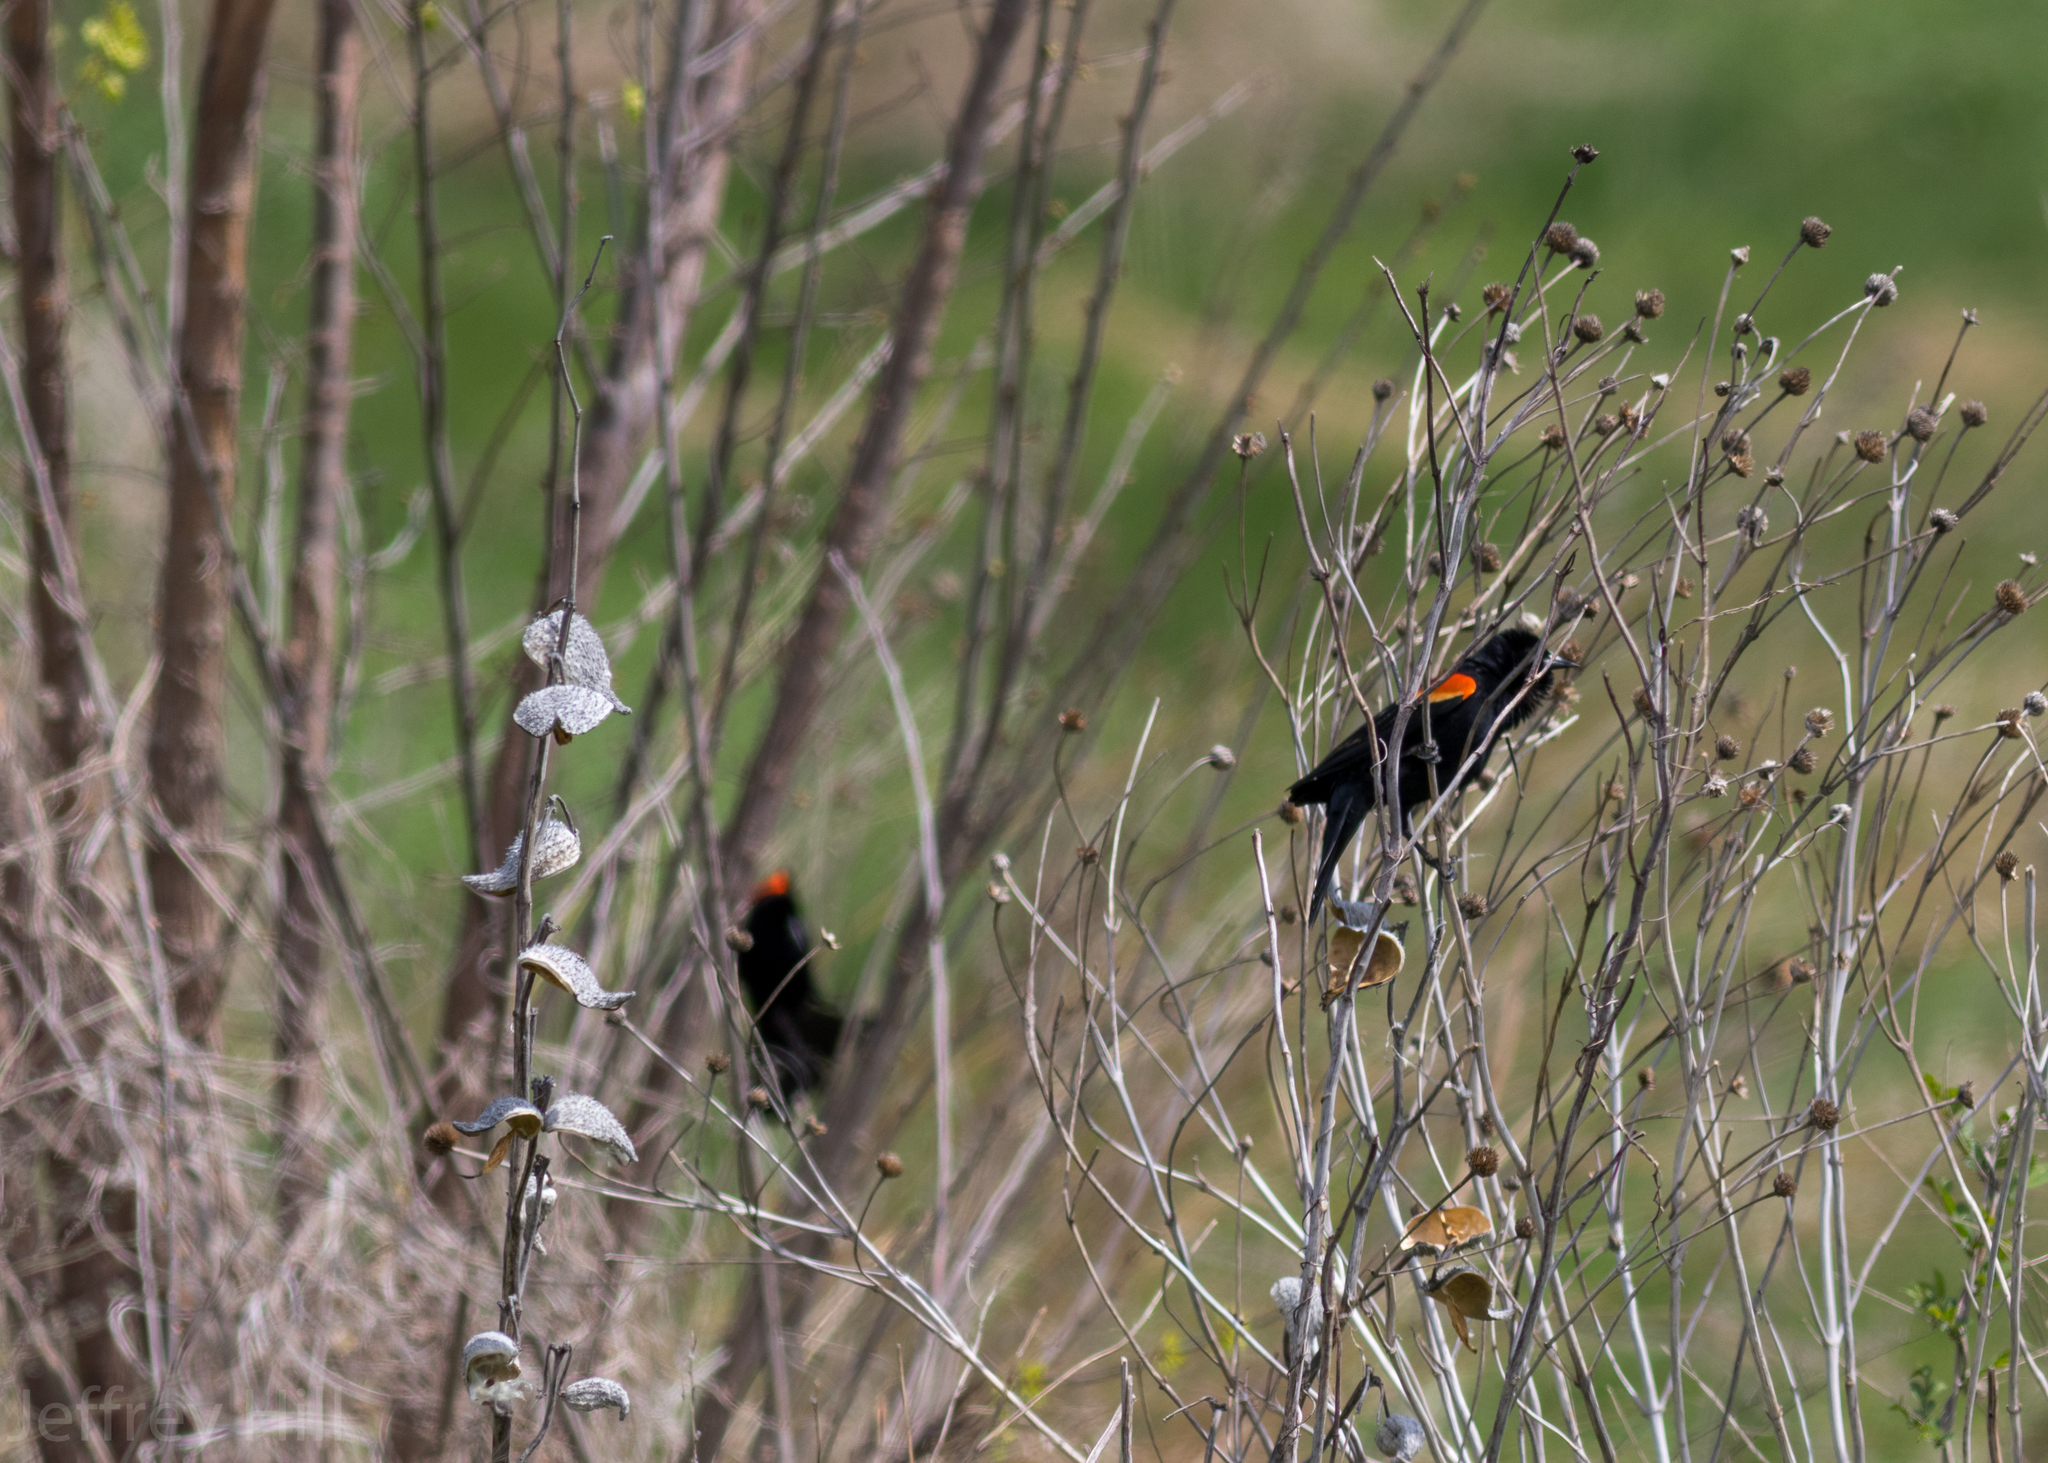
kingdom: Animalia
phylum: Chordata
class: Aves
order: Passeriformes
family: Icteridae
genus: Agelaius
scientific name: Agelaius phoeniceus
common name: Red-winged blackbird
